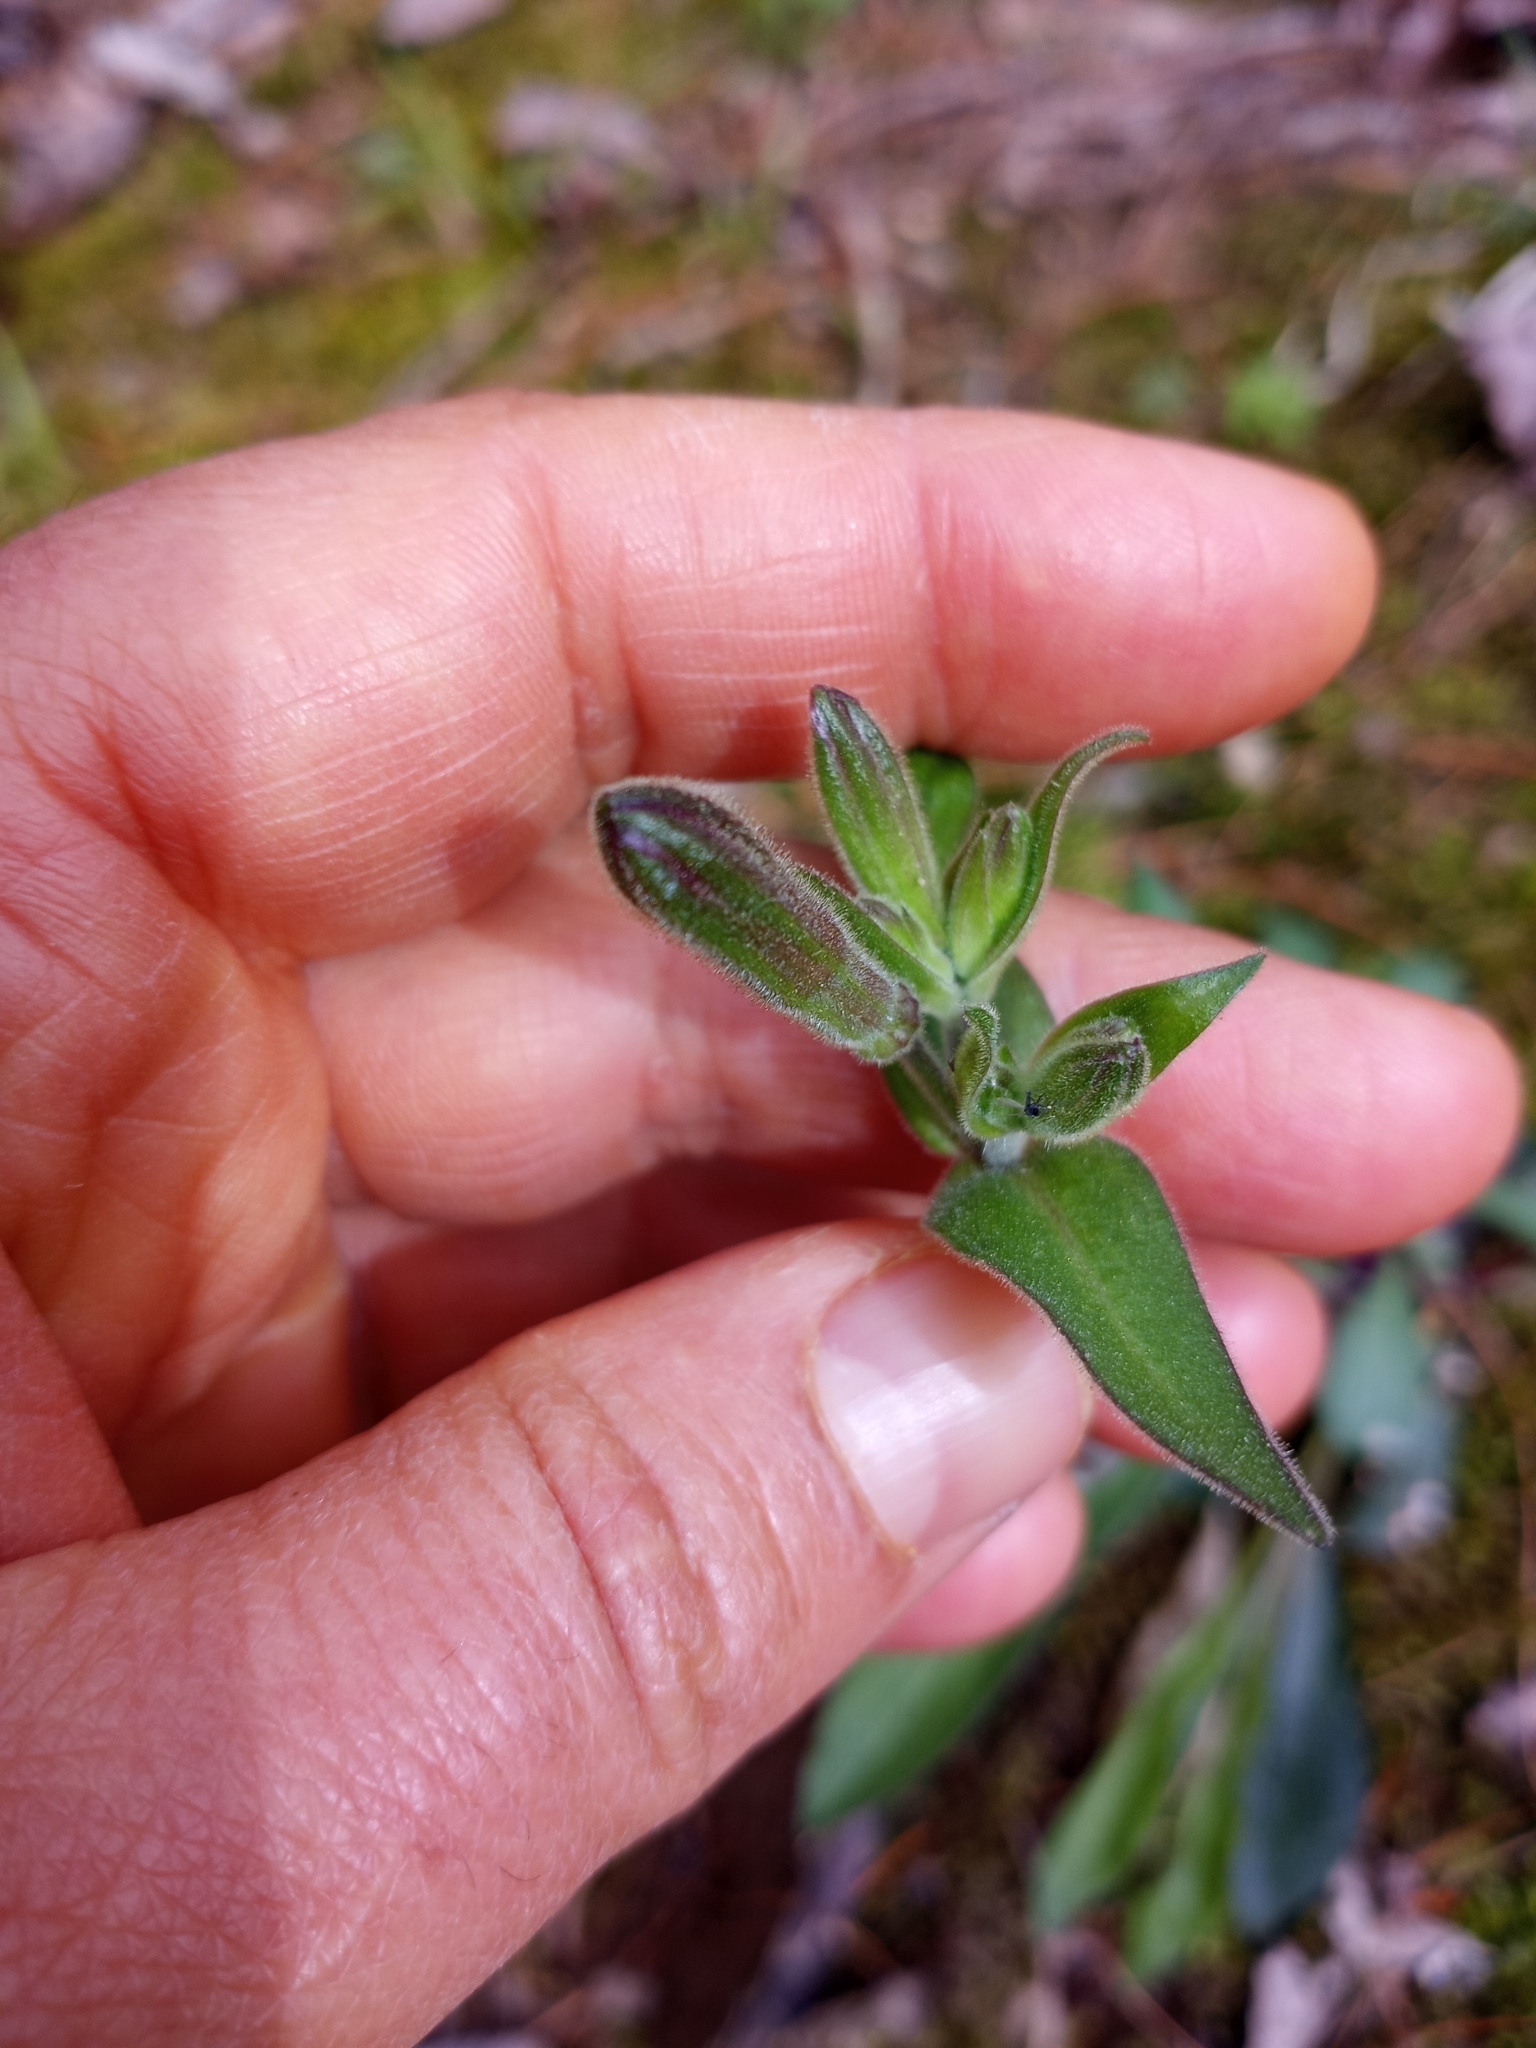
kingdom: Plantae
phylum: Tracheophyta
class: Magnoliopsida
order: Caryophyllales
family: Caryophyllaceae
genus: Silene
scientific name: Silene virginica
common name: Fire-pink
